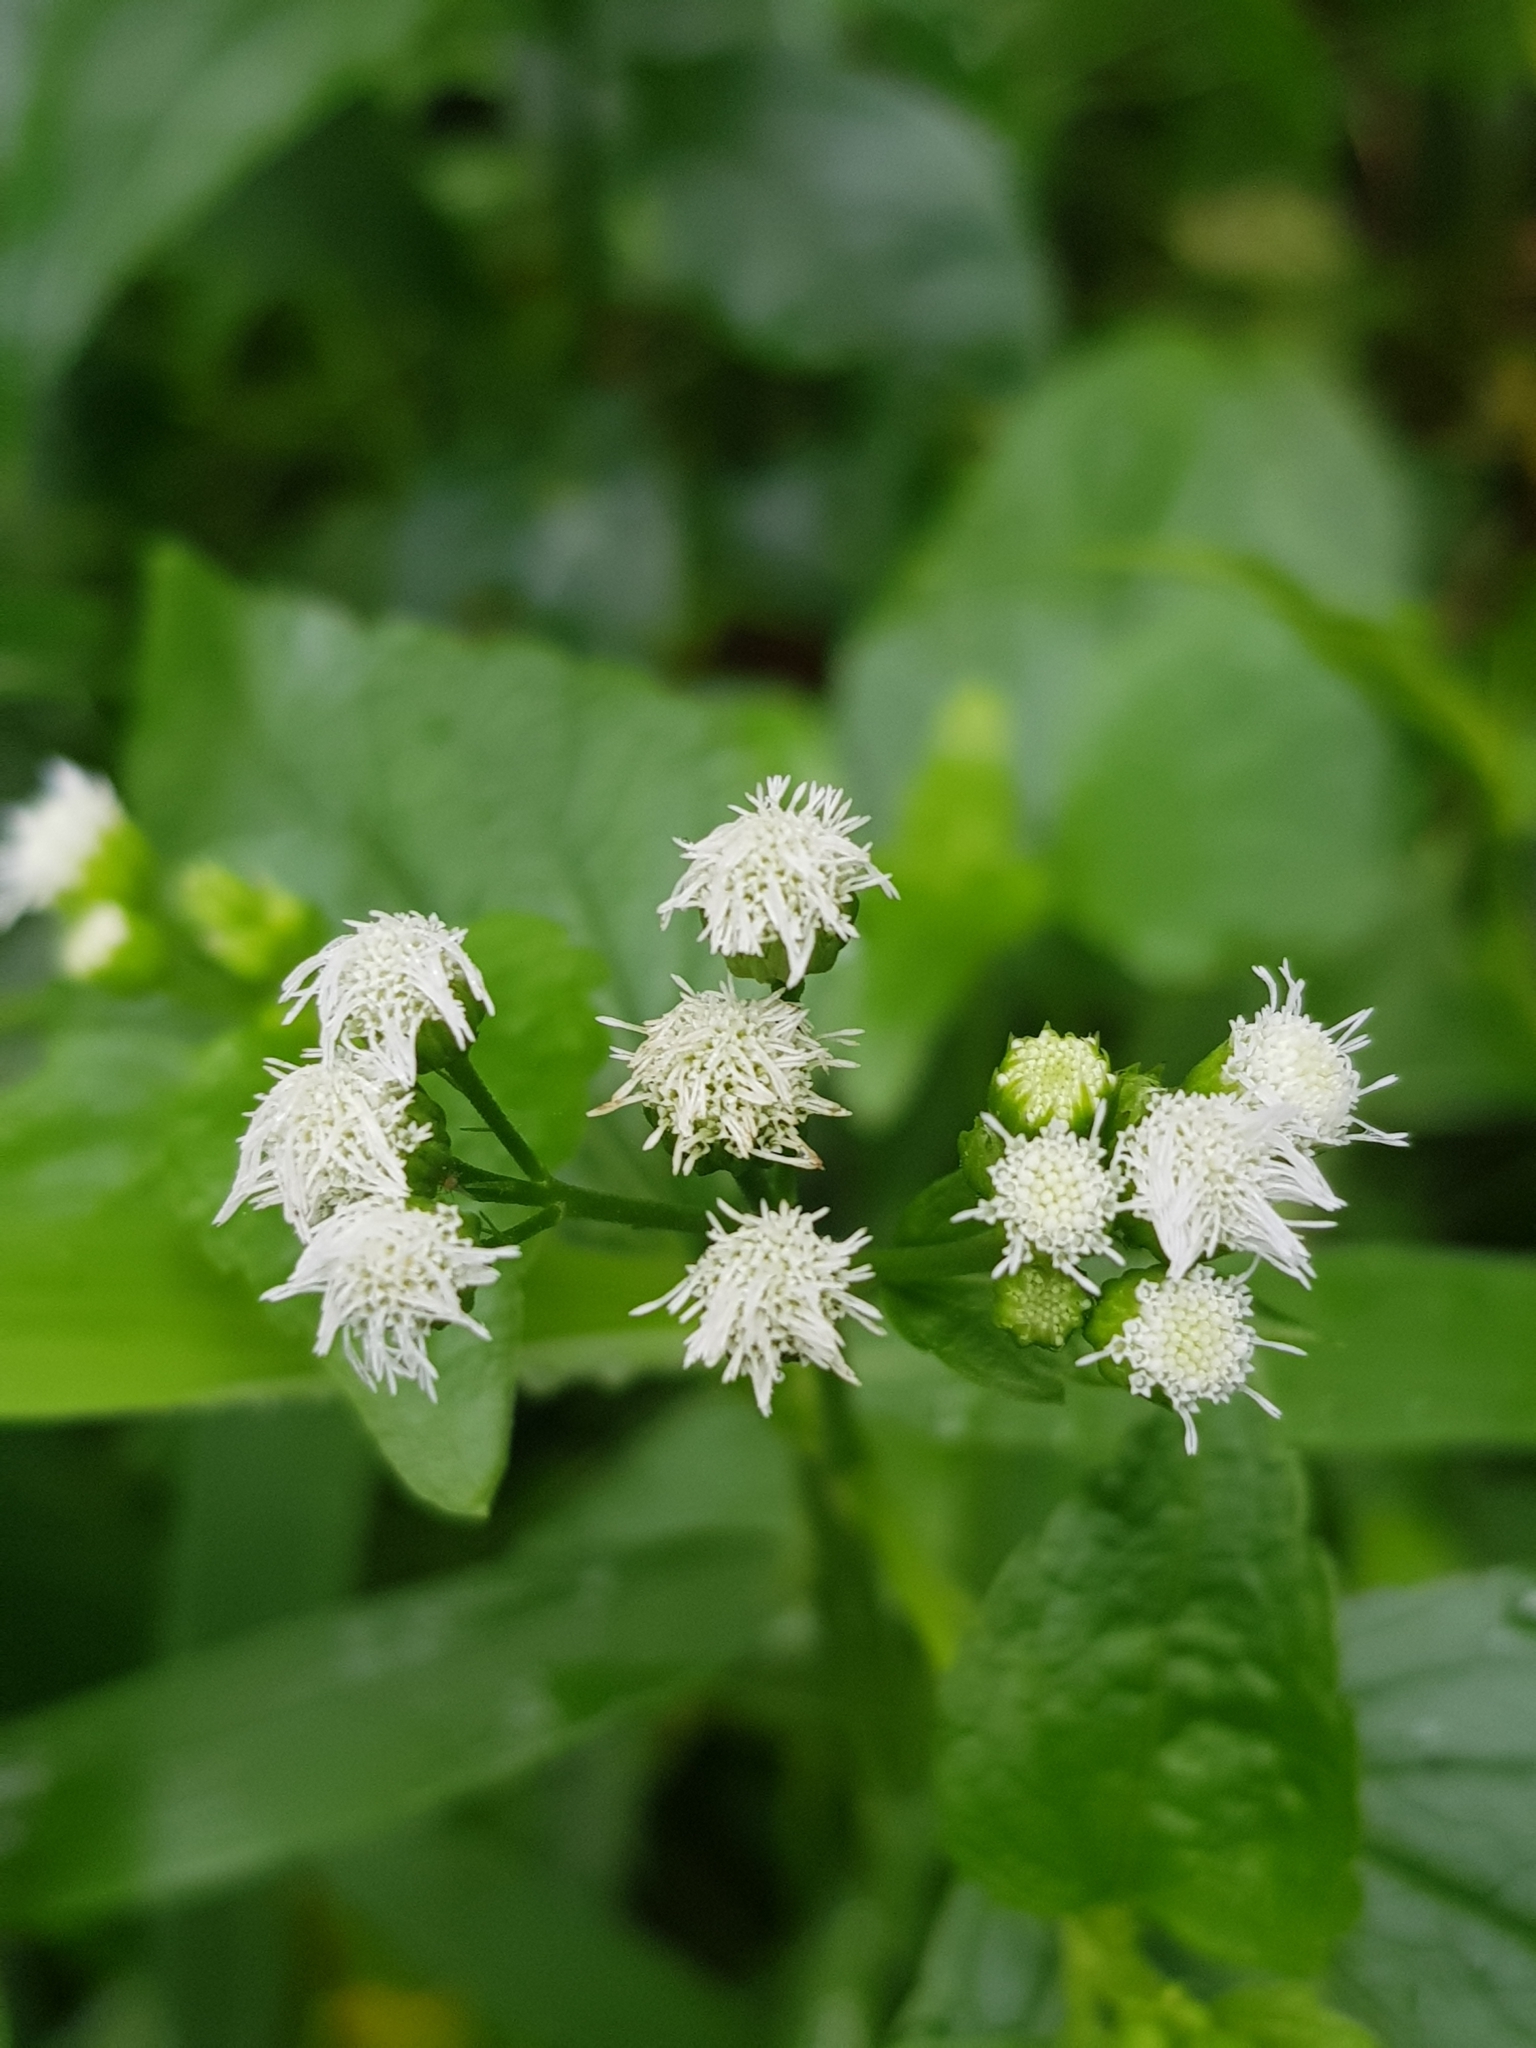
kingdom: Plantae
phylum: Tracheophyta
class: Magnoliopsida
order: Asterales
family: Asteraceae
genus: Ageratum
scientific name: Ageratum conyzoides
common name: Tropical whiteweed
